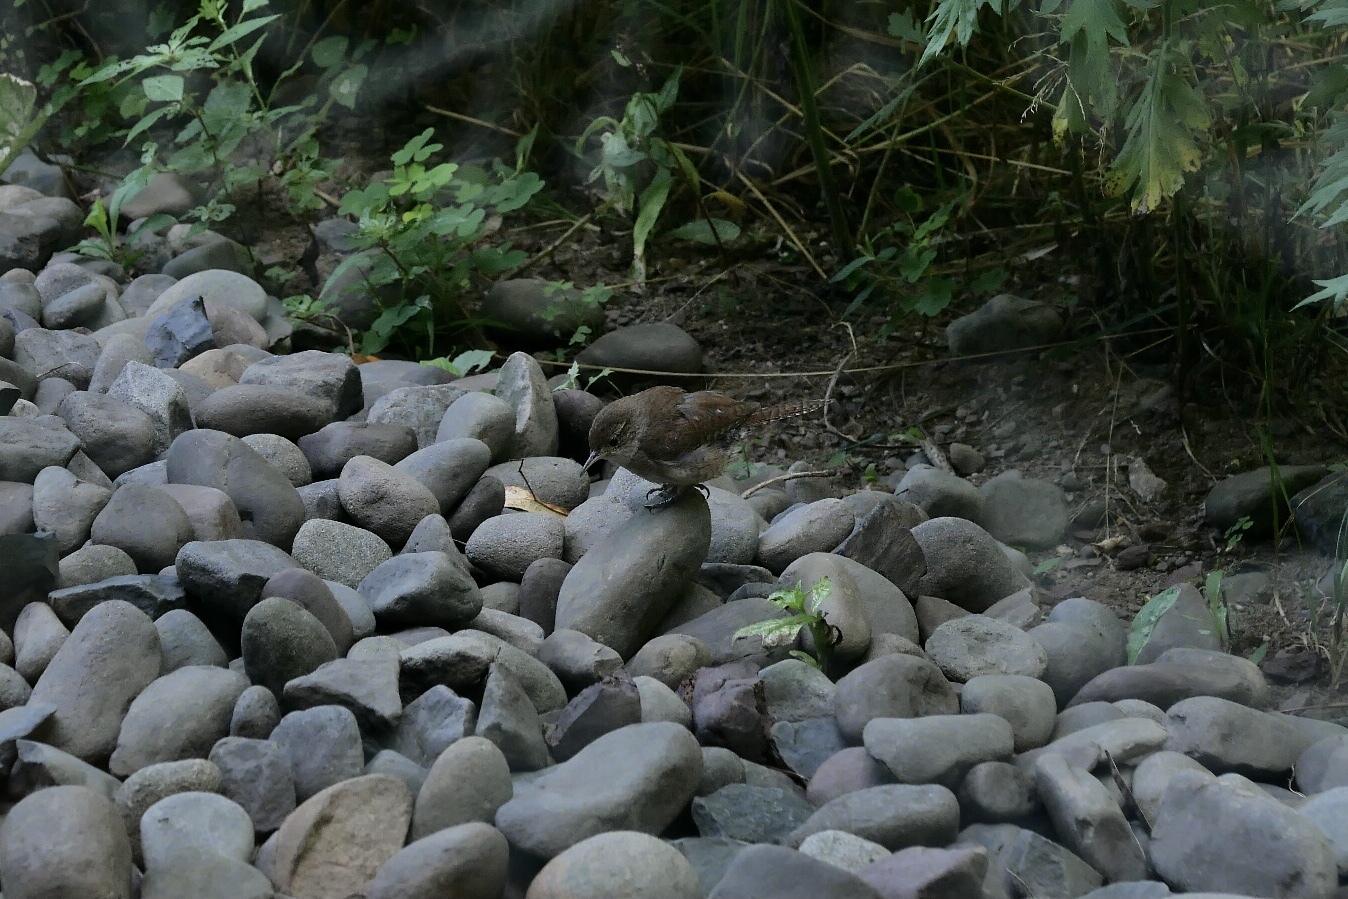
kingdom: Animalia
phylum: Chordata
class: Aves
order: Passeriformes
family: Troglodytidae
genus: Troglodytes
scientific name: Troglodytes aedon
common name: House wren
